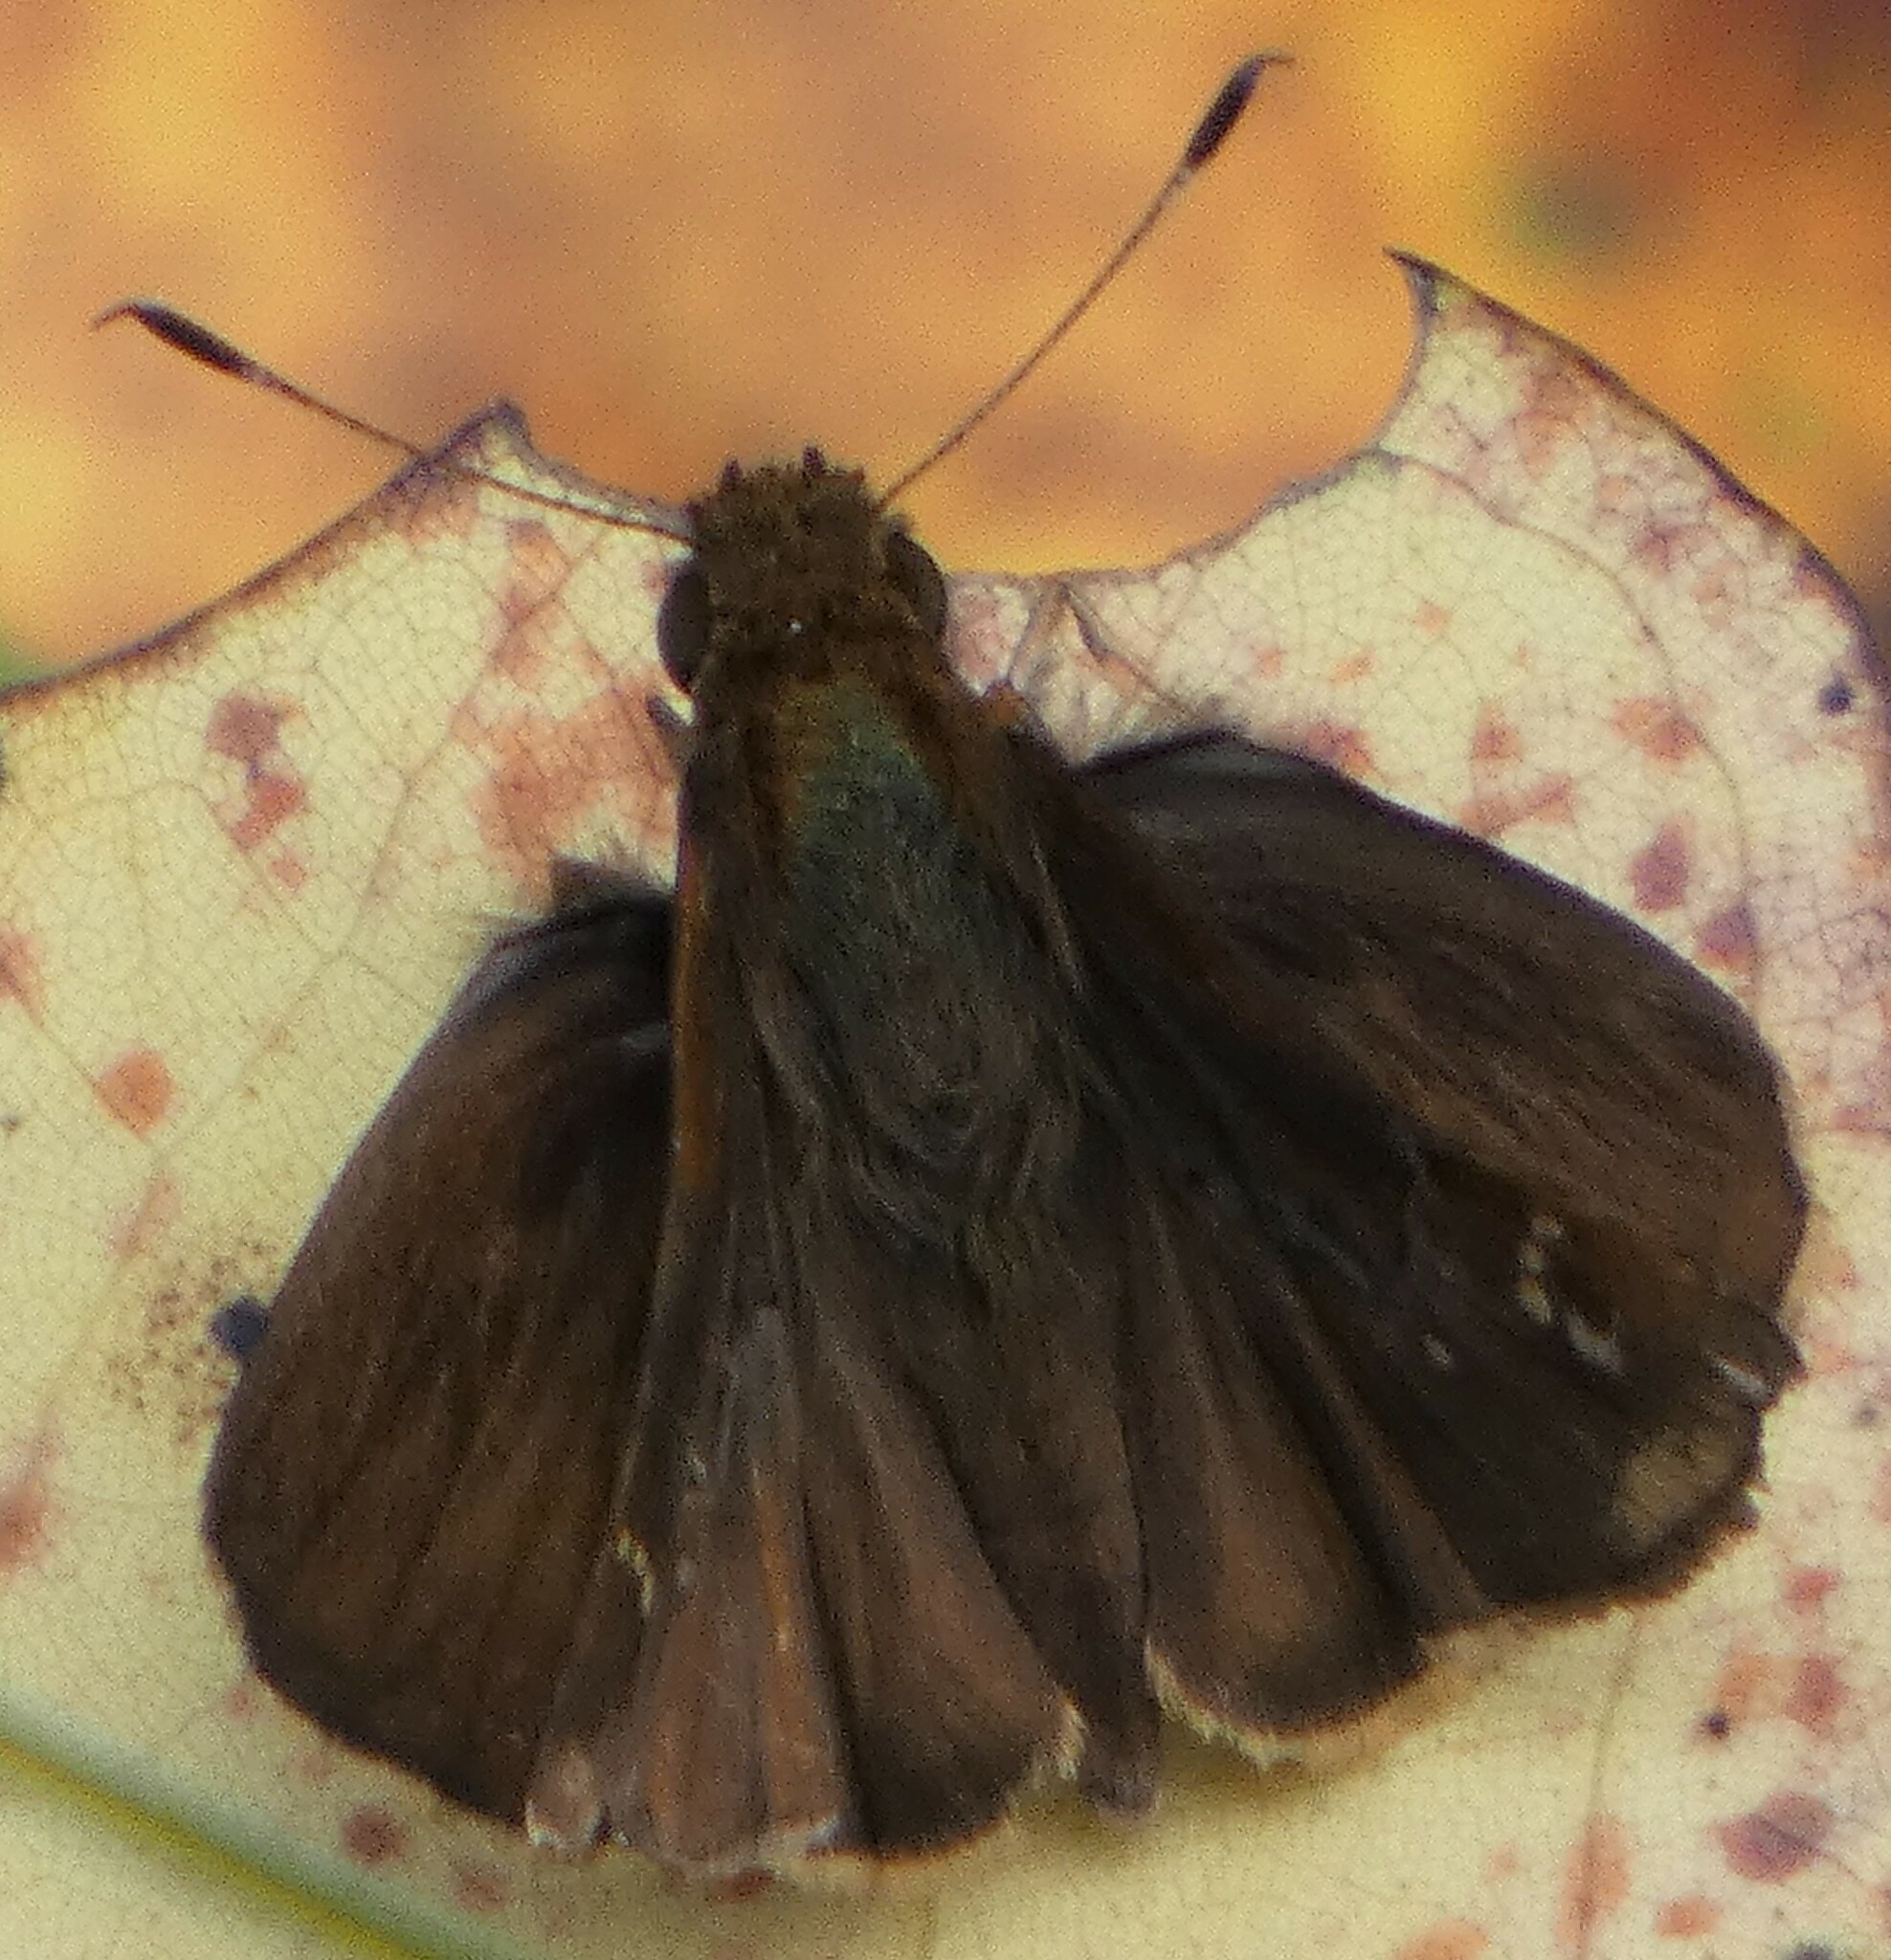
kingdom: Animalia
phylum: Arthropoda
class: Insecta
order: Lepidoptera
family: Hesperiidae
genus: Lerema
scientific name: Lerema accius
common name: Clouded skipper
